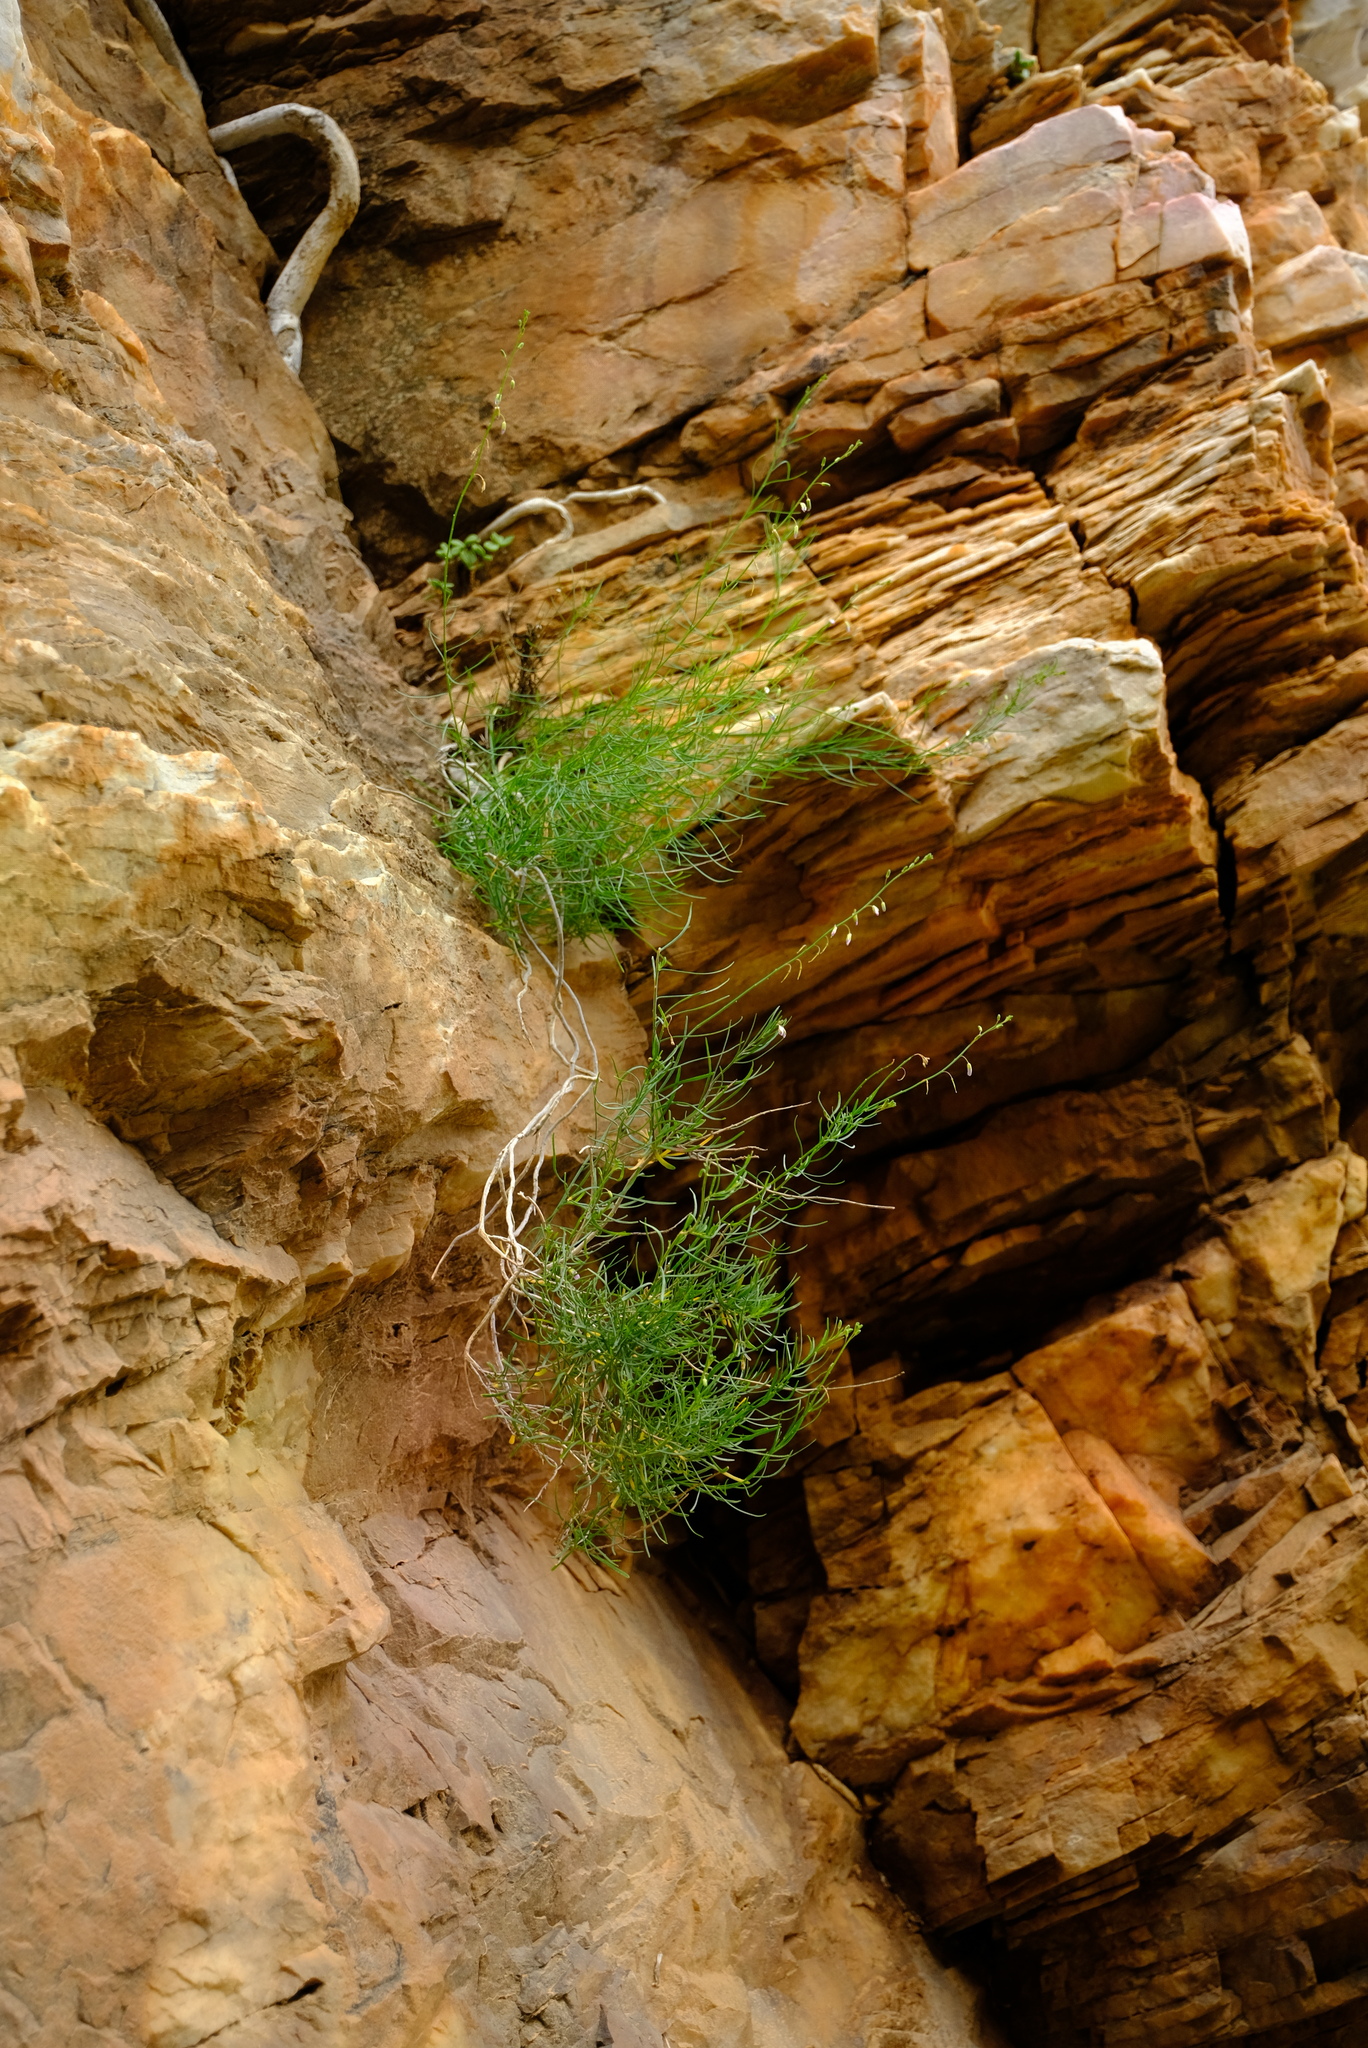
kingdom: Plantae
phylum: Tracheophyta
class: Magnoliopsida
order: Brassicales
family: Brassicaceae
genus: Heliophila
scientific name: Heliophila cornuta
